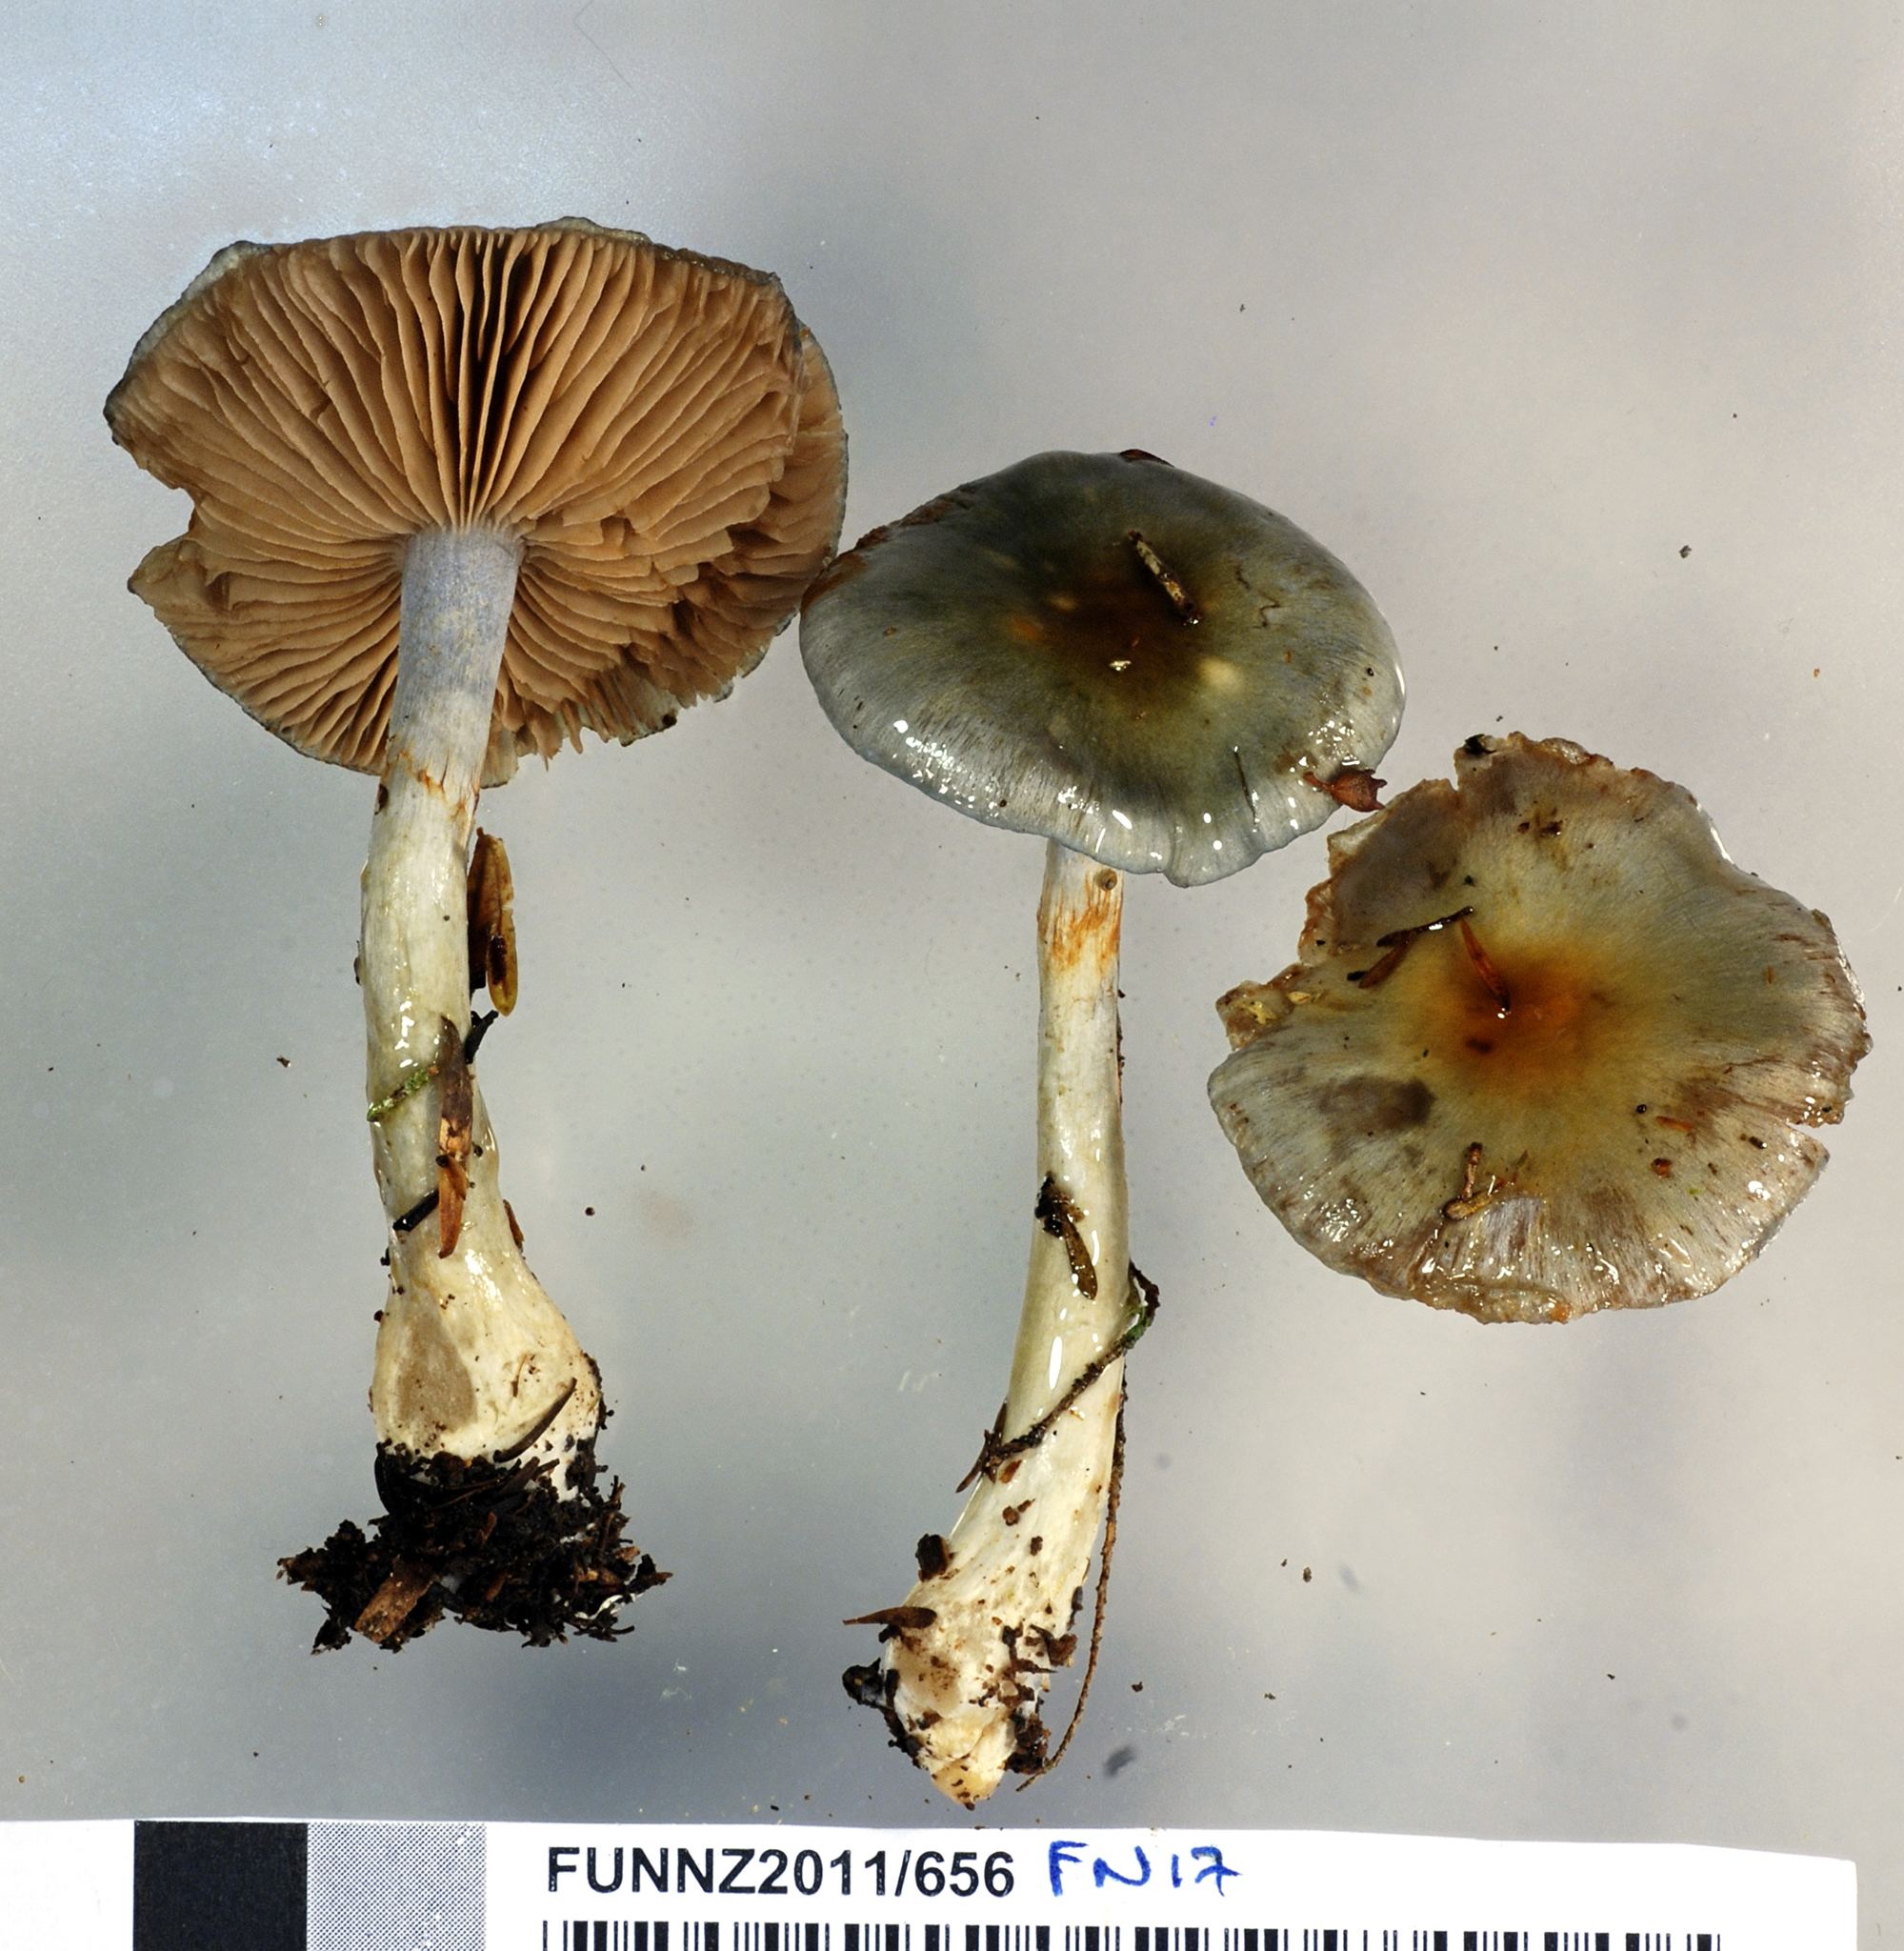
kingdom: Fungi
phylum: Basidiomycota
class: Agaricomycetes
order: Agaricales
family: Cortinariaceae
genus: Cortinarius
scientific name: Cortinarius rotundisporus
